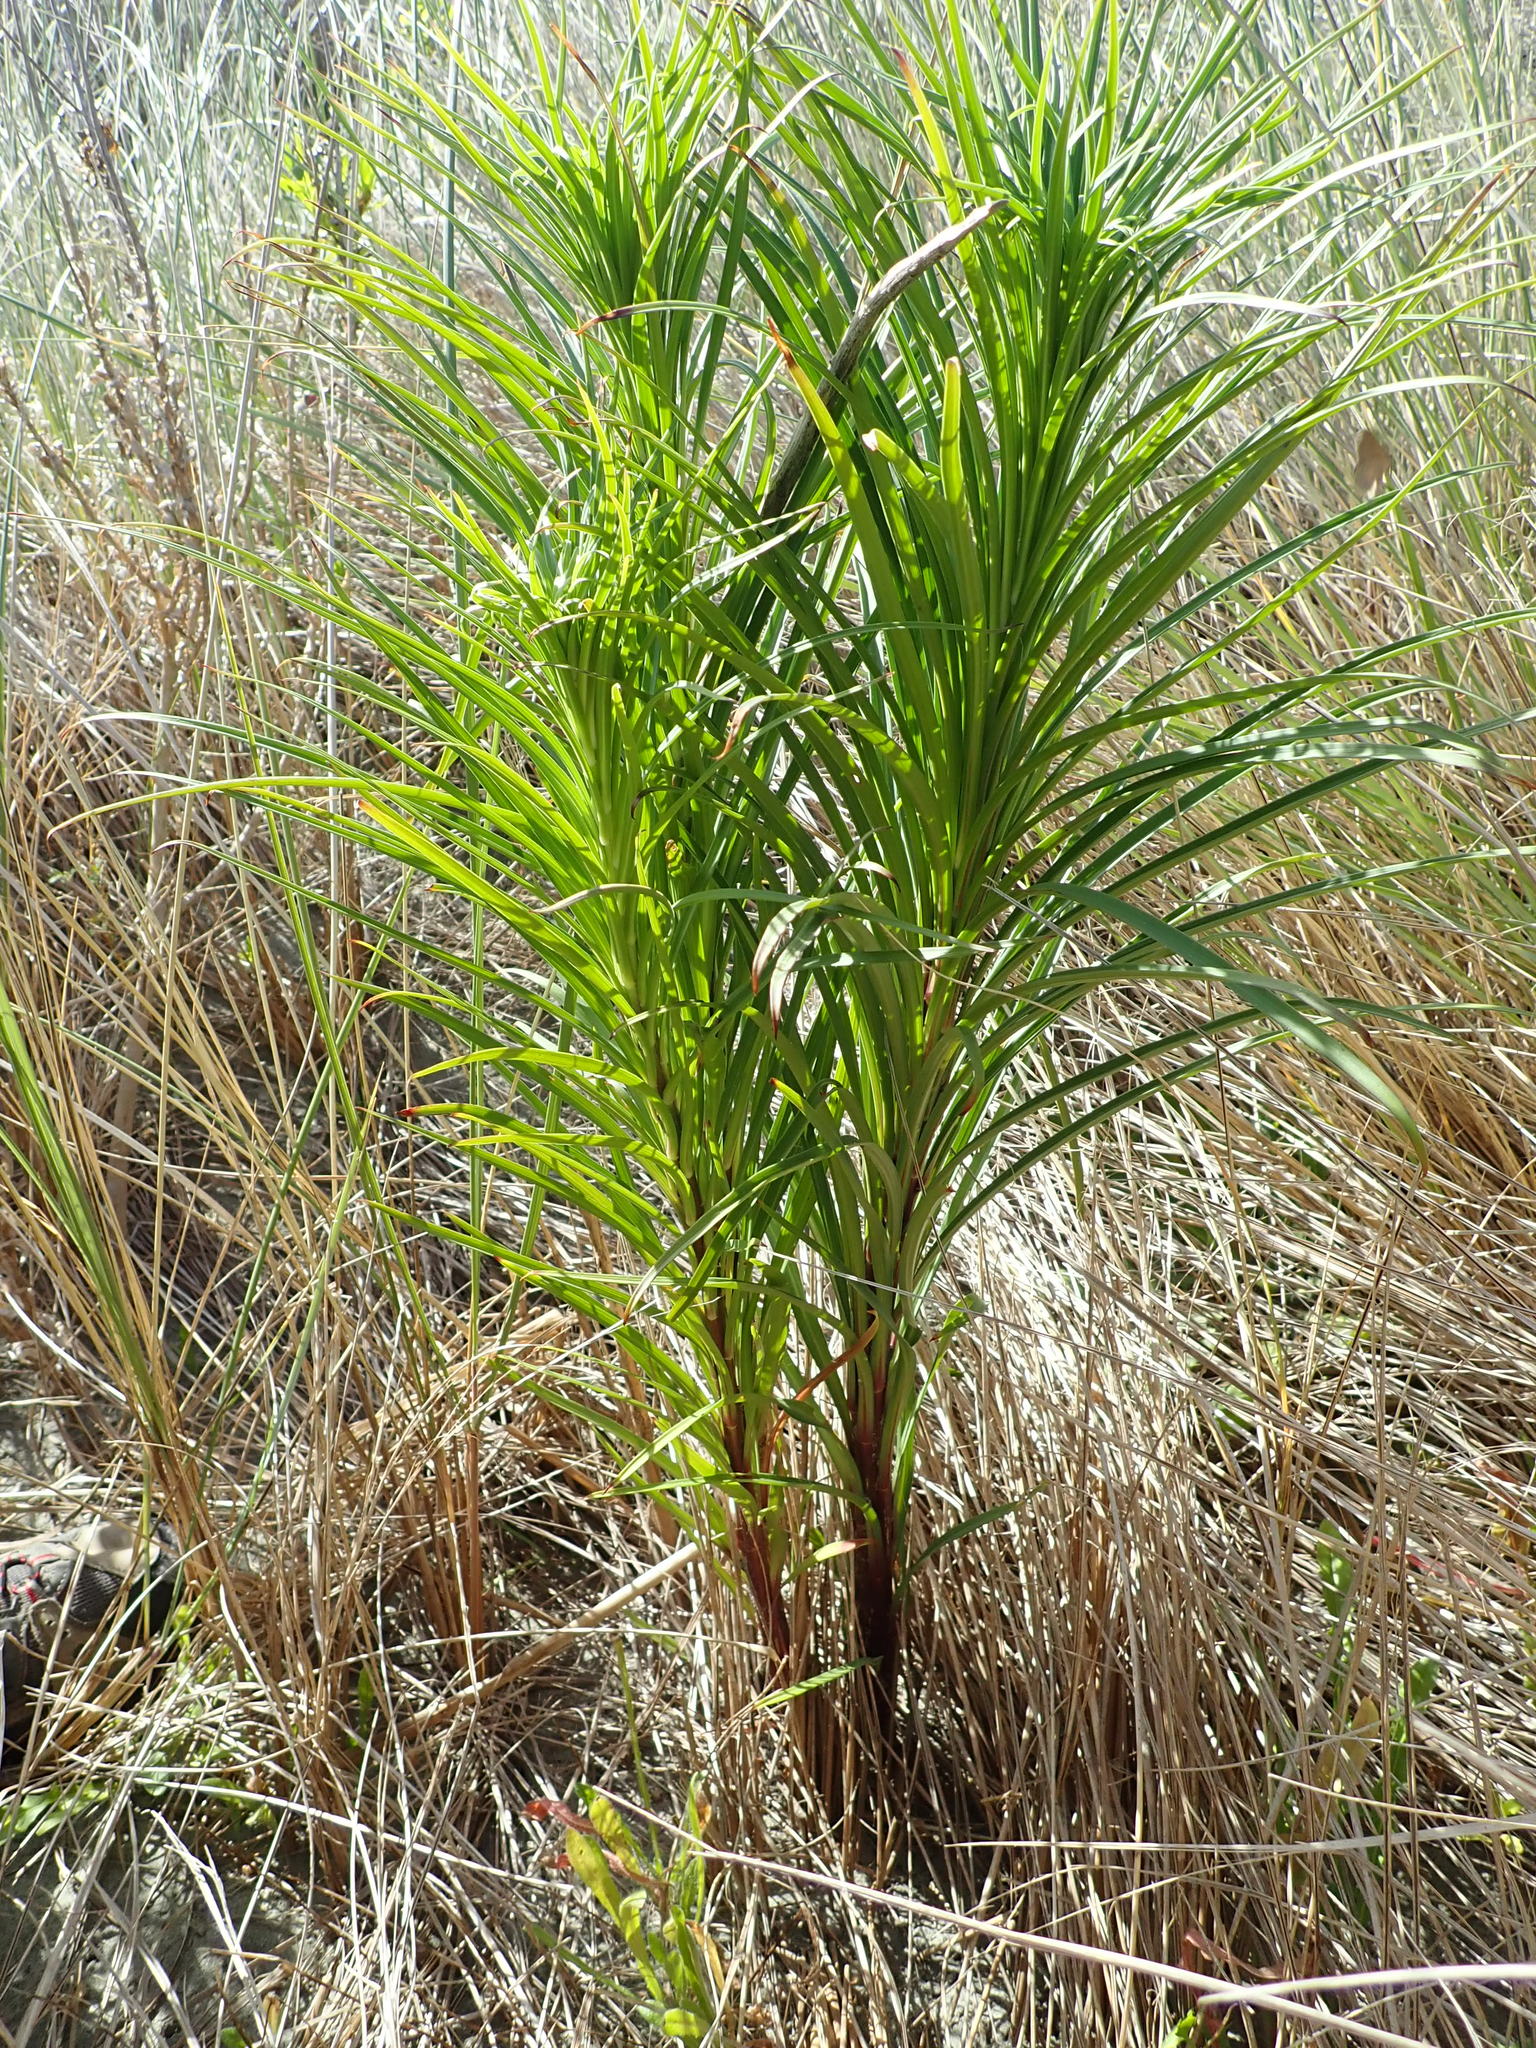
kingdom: Plantae
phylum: Tracheophyta
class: Liliopsida
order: Liliales
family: Liliaceae
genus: Lilium
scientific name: Lilium formosanum
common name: Formosa lily
